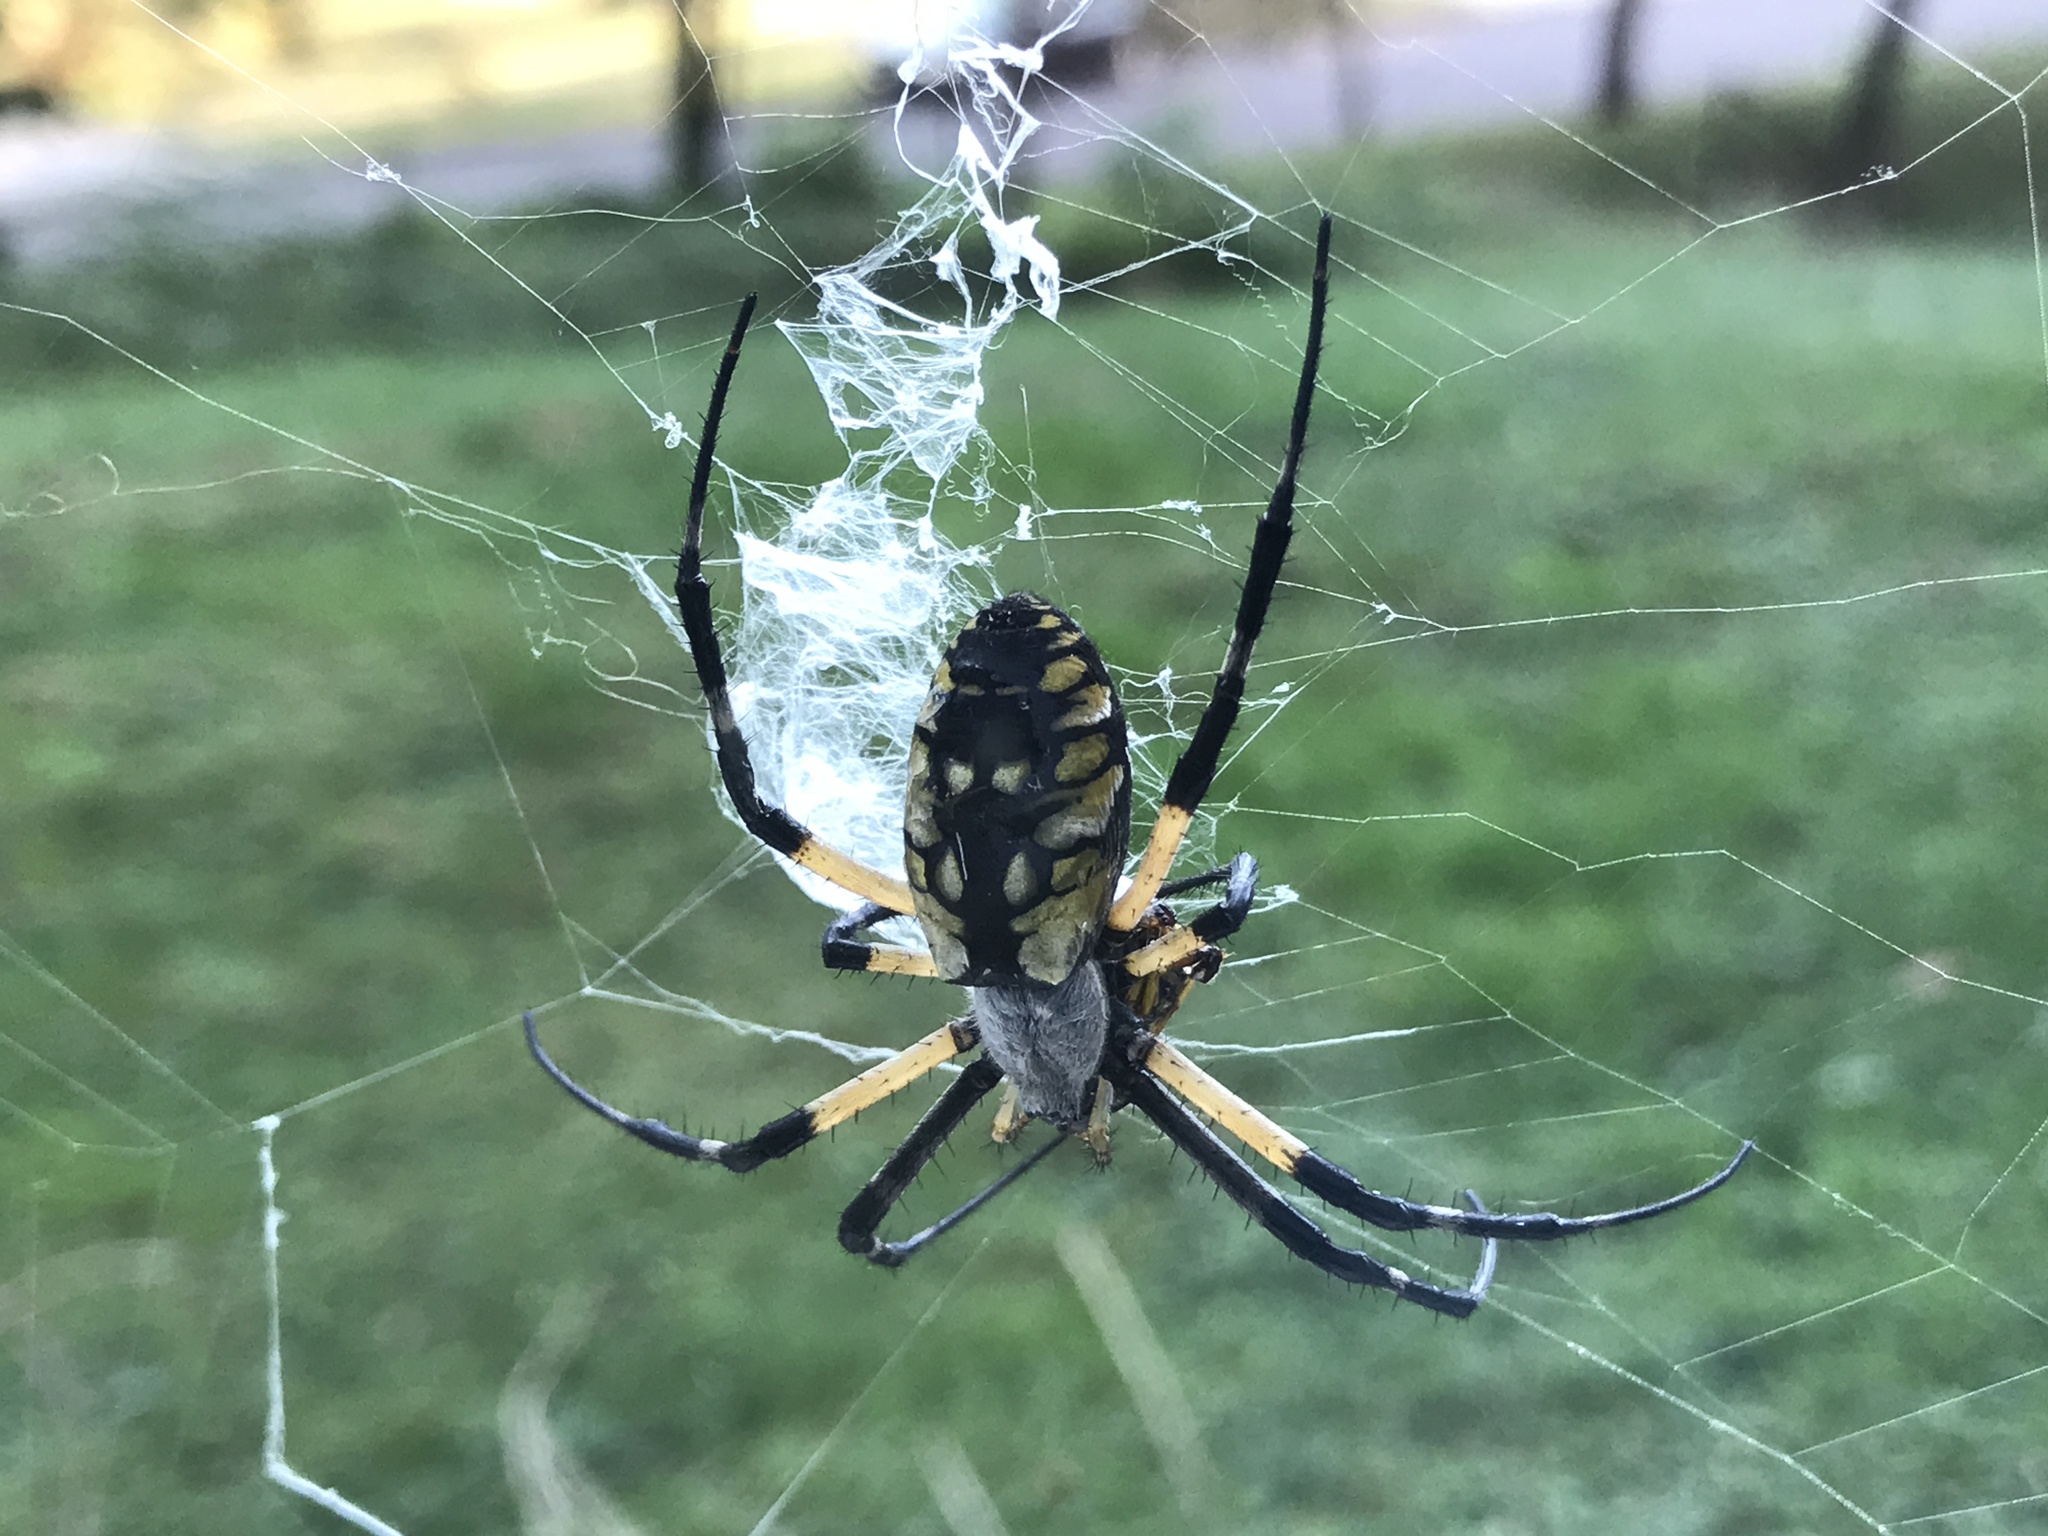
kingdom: Animalia
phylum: Arthropoda
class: Arachnida
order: Araneae
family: Araneidae
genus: Argiope
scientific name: Argiope aurantia
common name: Orb weavers
